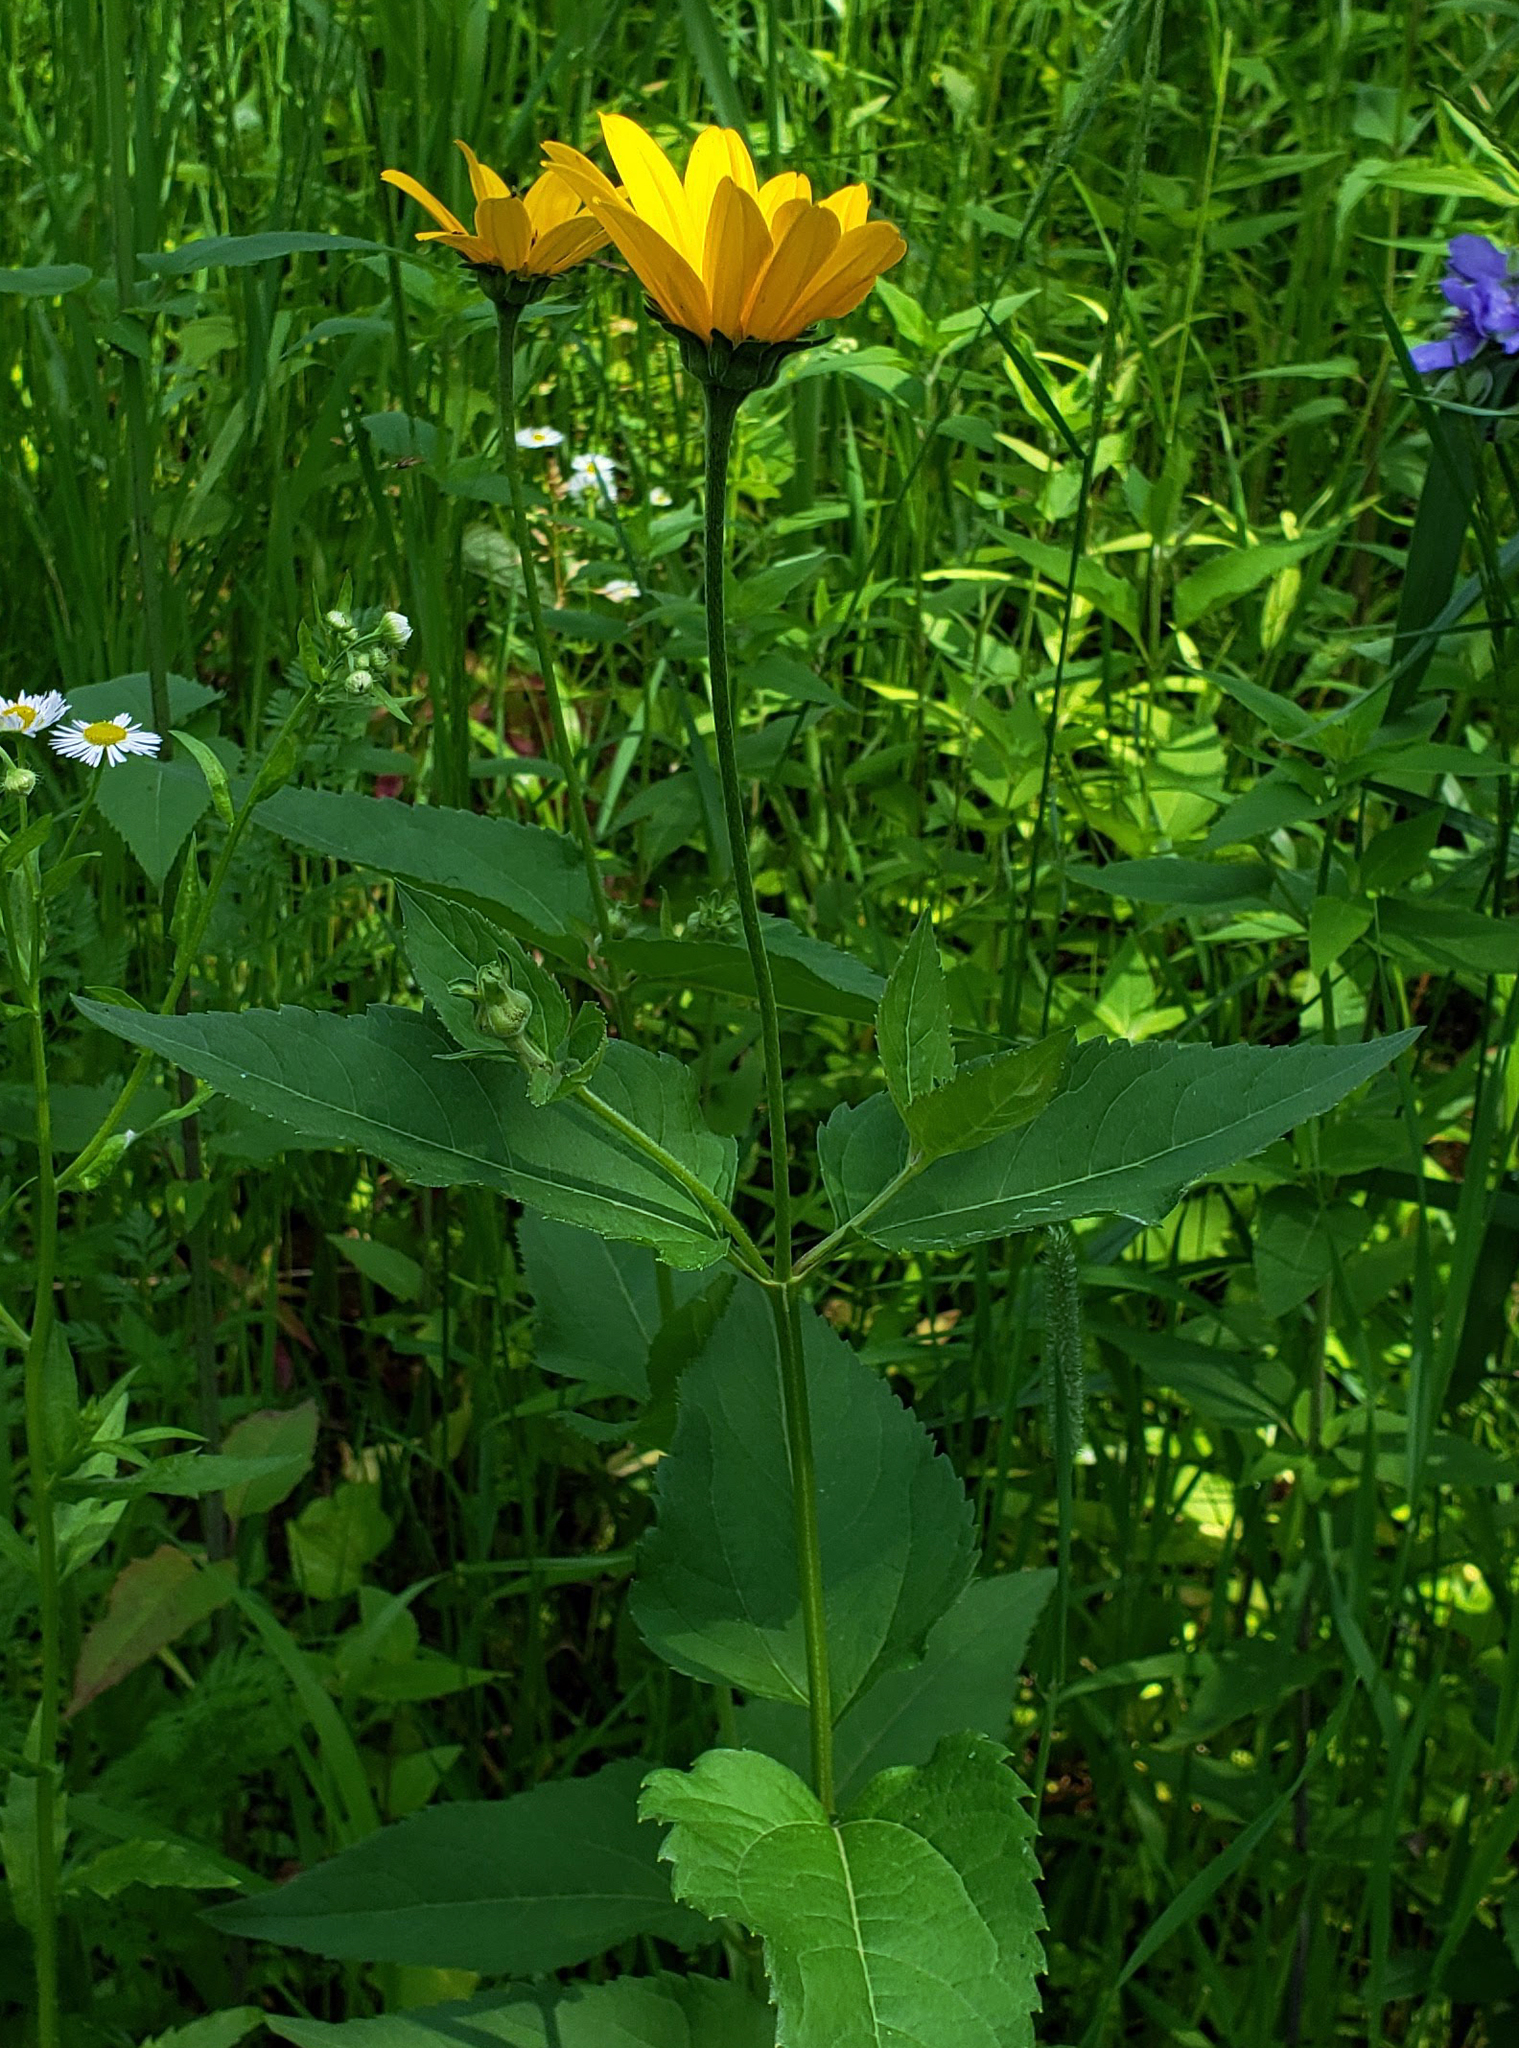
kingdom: Plantae
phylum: Tracheophyta
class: Magnoliopsida
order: Asterales
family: Asteraceae
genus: Heliopsis
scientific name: Heliopsis helianthoides
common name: False sunflower
